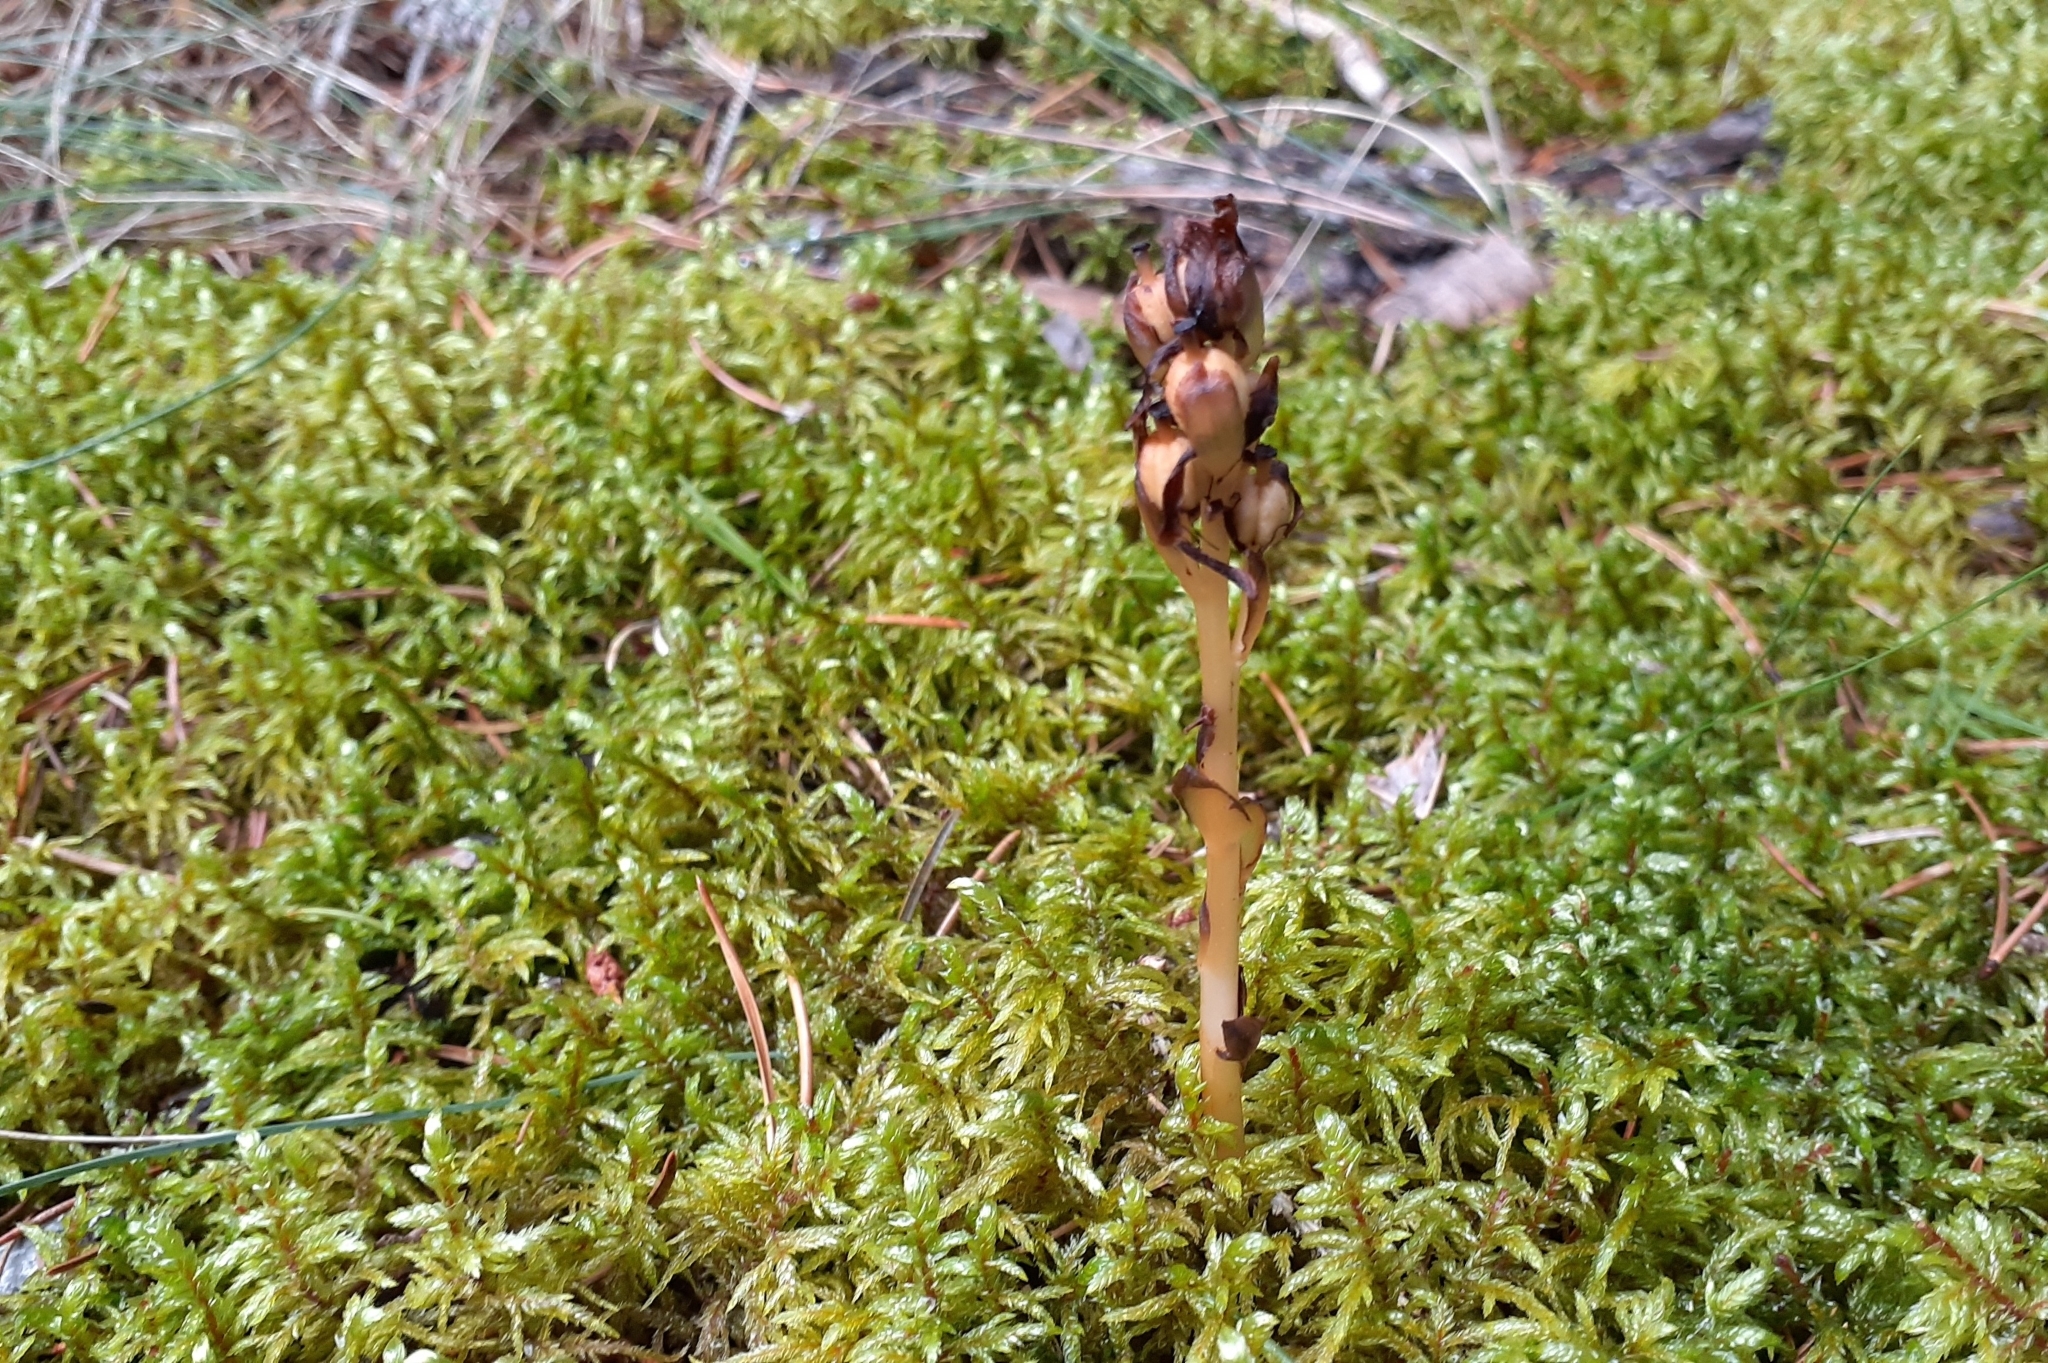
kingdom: Plantae
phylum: Tracheophyta
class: Magnoliopsida
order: Ericales
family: Ericaceae
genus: Hypopitys
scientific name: Hypopitys monotropa
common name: Yellow bird's-nest
